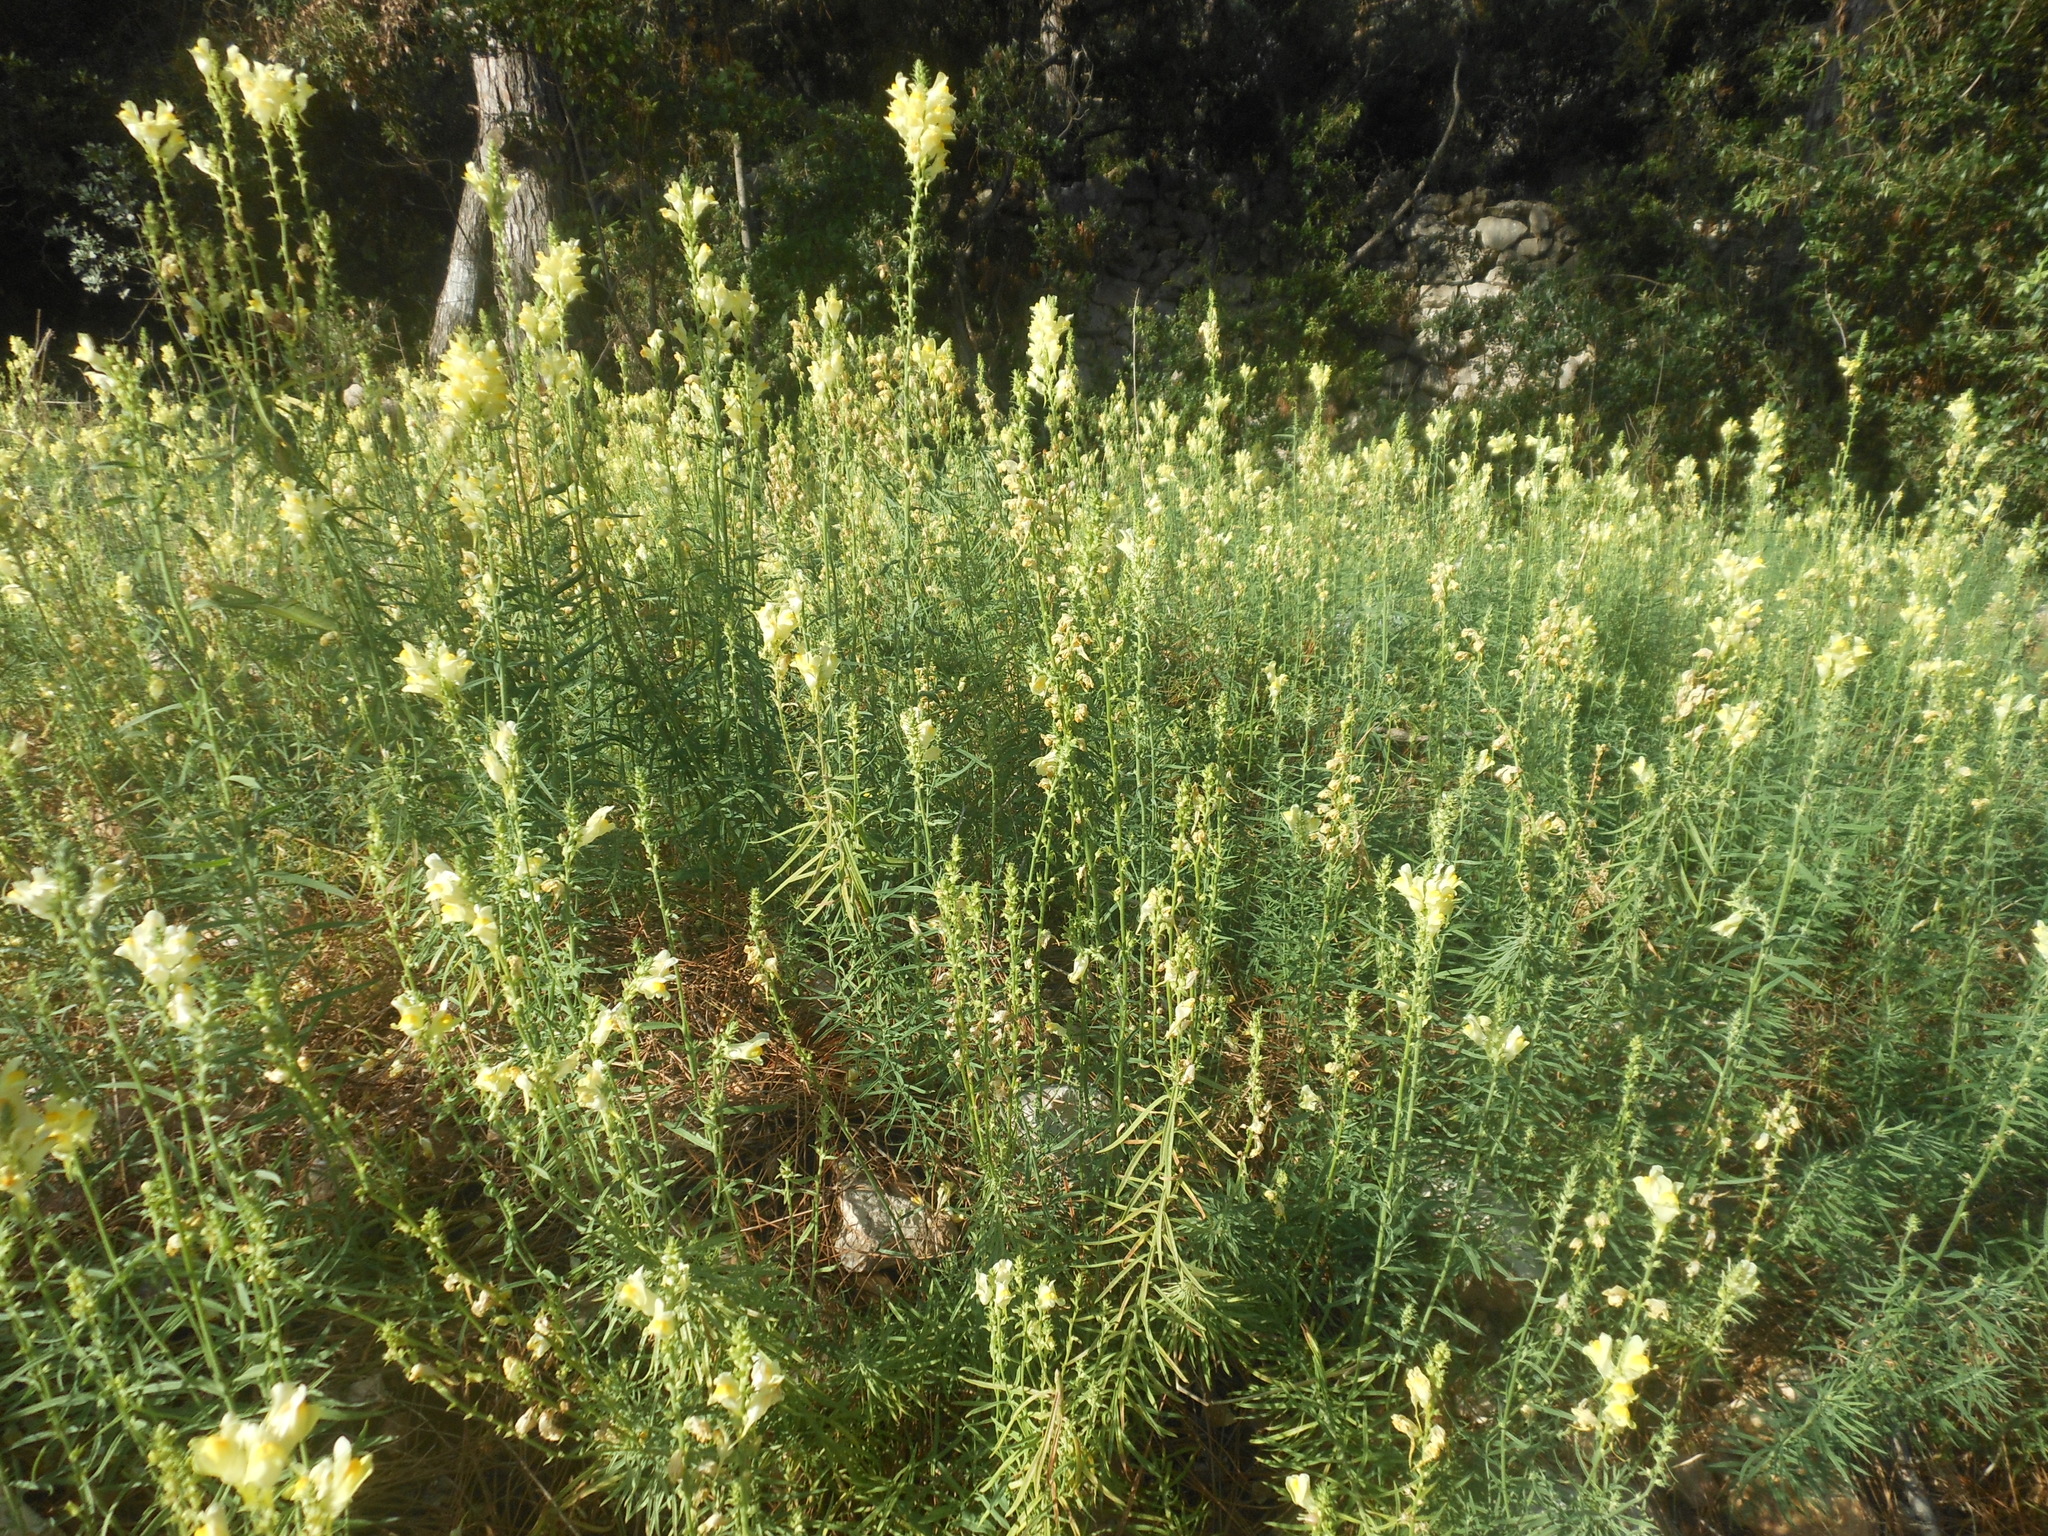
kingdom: Plantae
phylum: Tracheophyta
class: Magnoliopsida
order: Lamiales
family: Plantaginaceae
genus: Linaria
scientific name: Linaria vulgaris
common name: Butter and eggs
